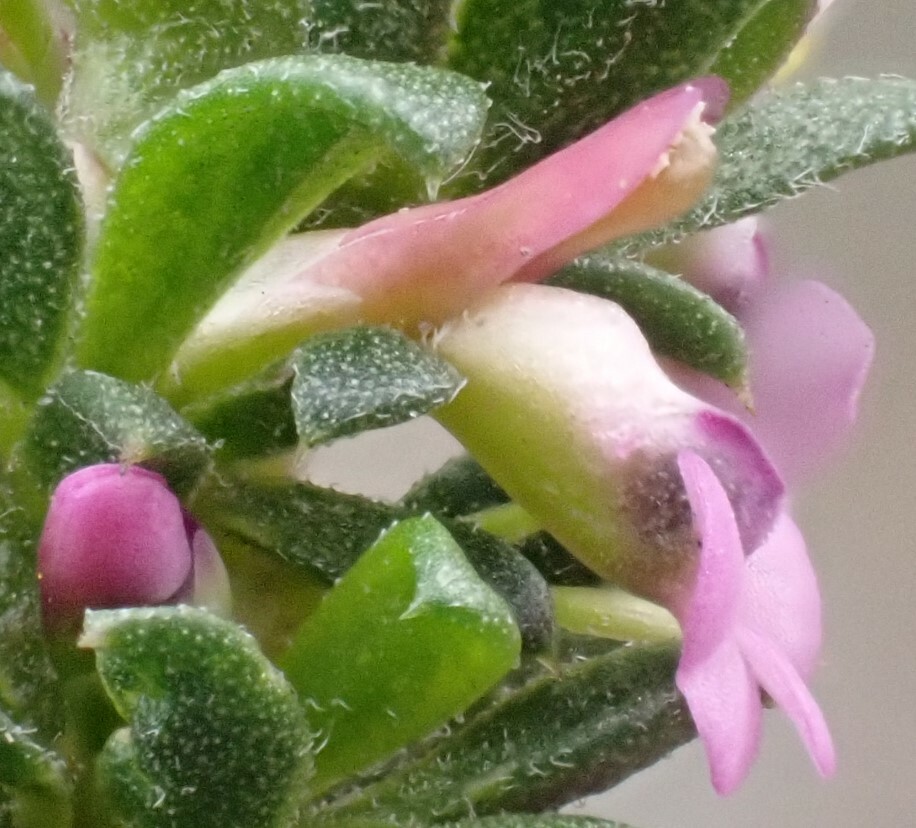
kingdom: Plantae
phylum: Tracheophyta
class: Magnoliopsida
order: Fabales
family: Polygalaceae
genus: Muraltia
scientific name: Muraltia dumosa
